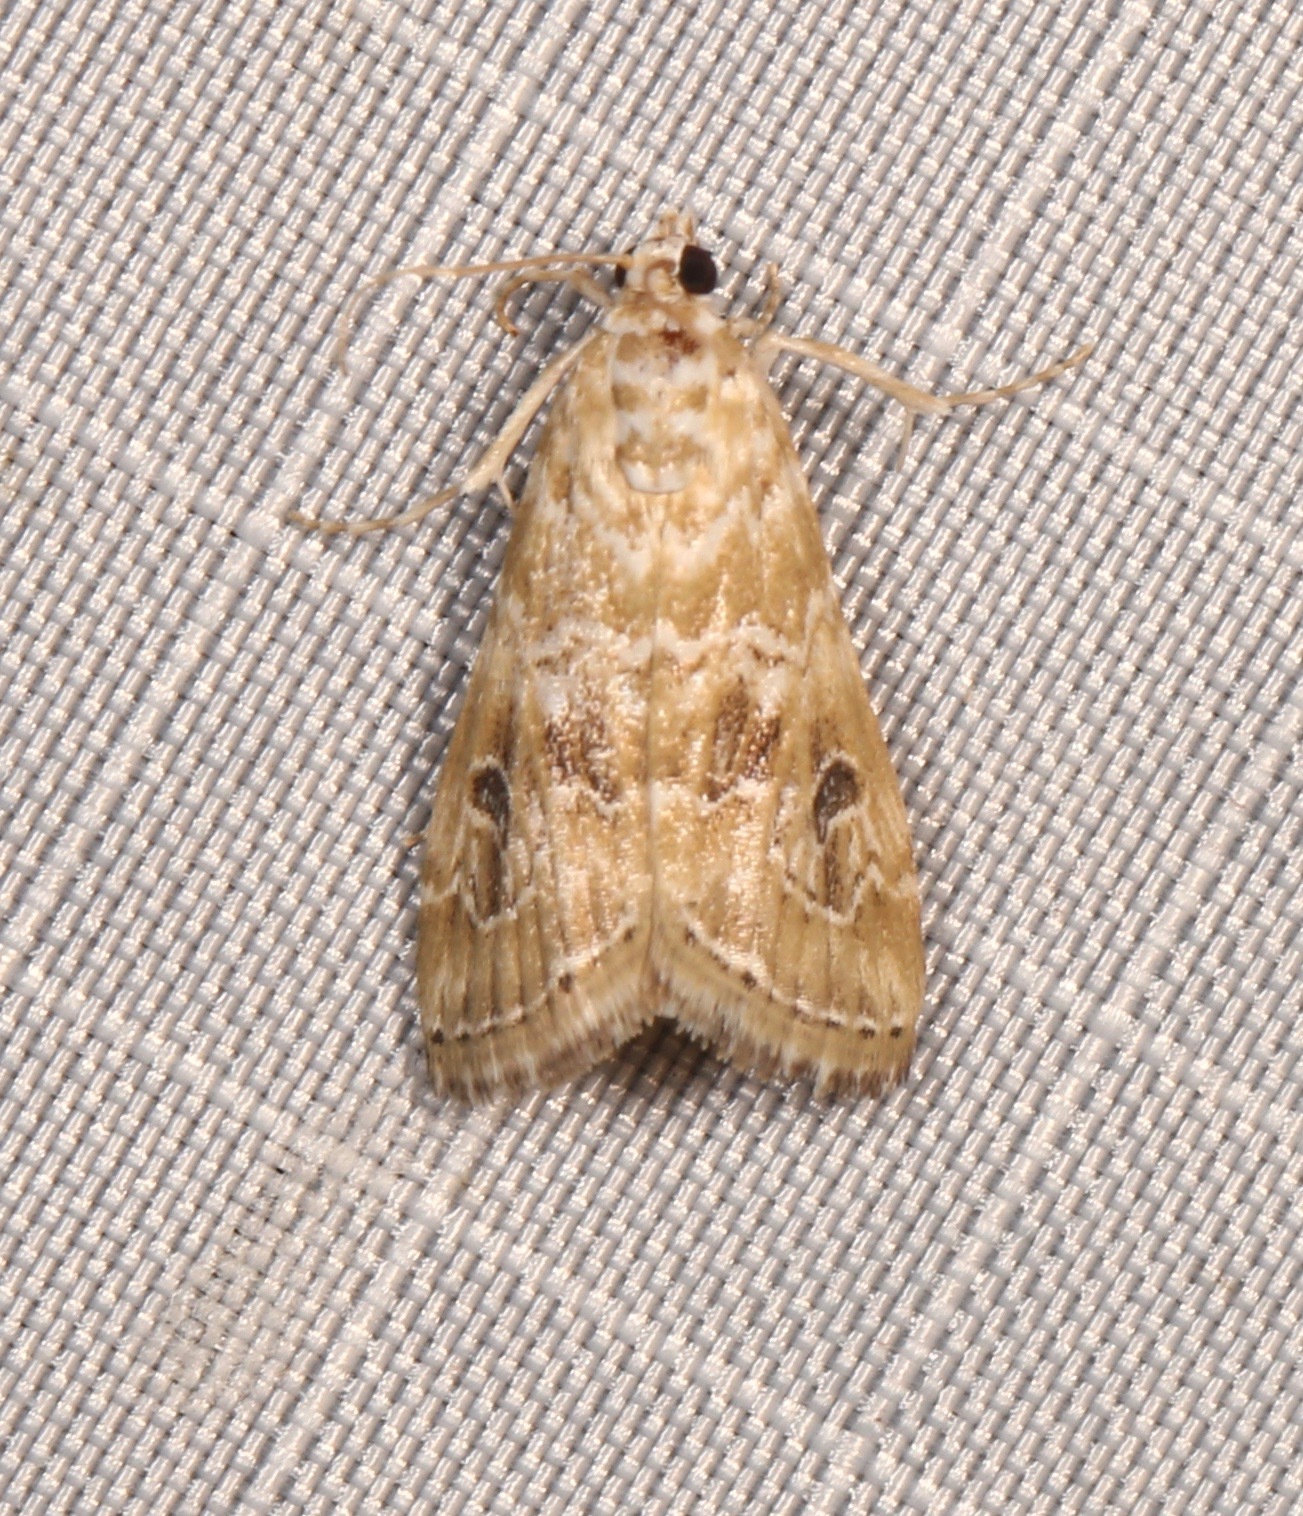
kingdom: Animalia
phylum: Arthropoda
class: Insecta
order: Lepidoptera
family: Crambidae
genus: Hellula
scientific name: Hellula rogatalis
